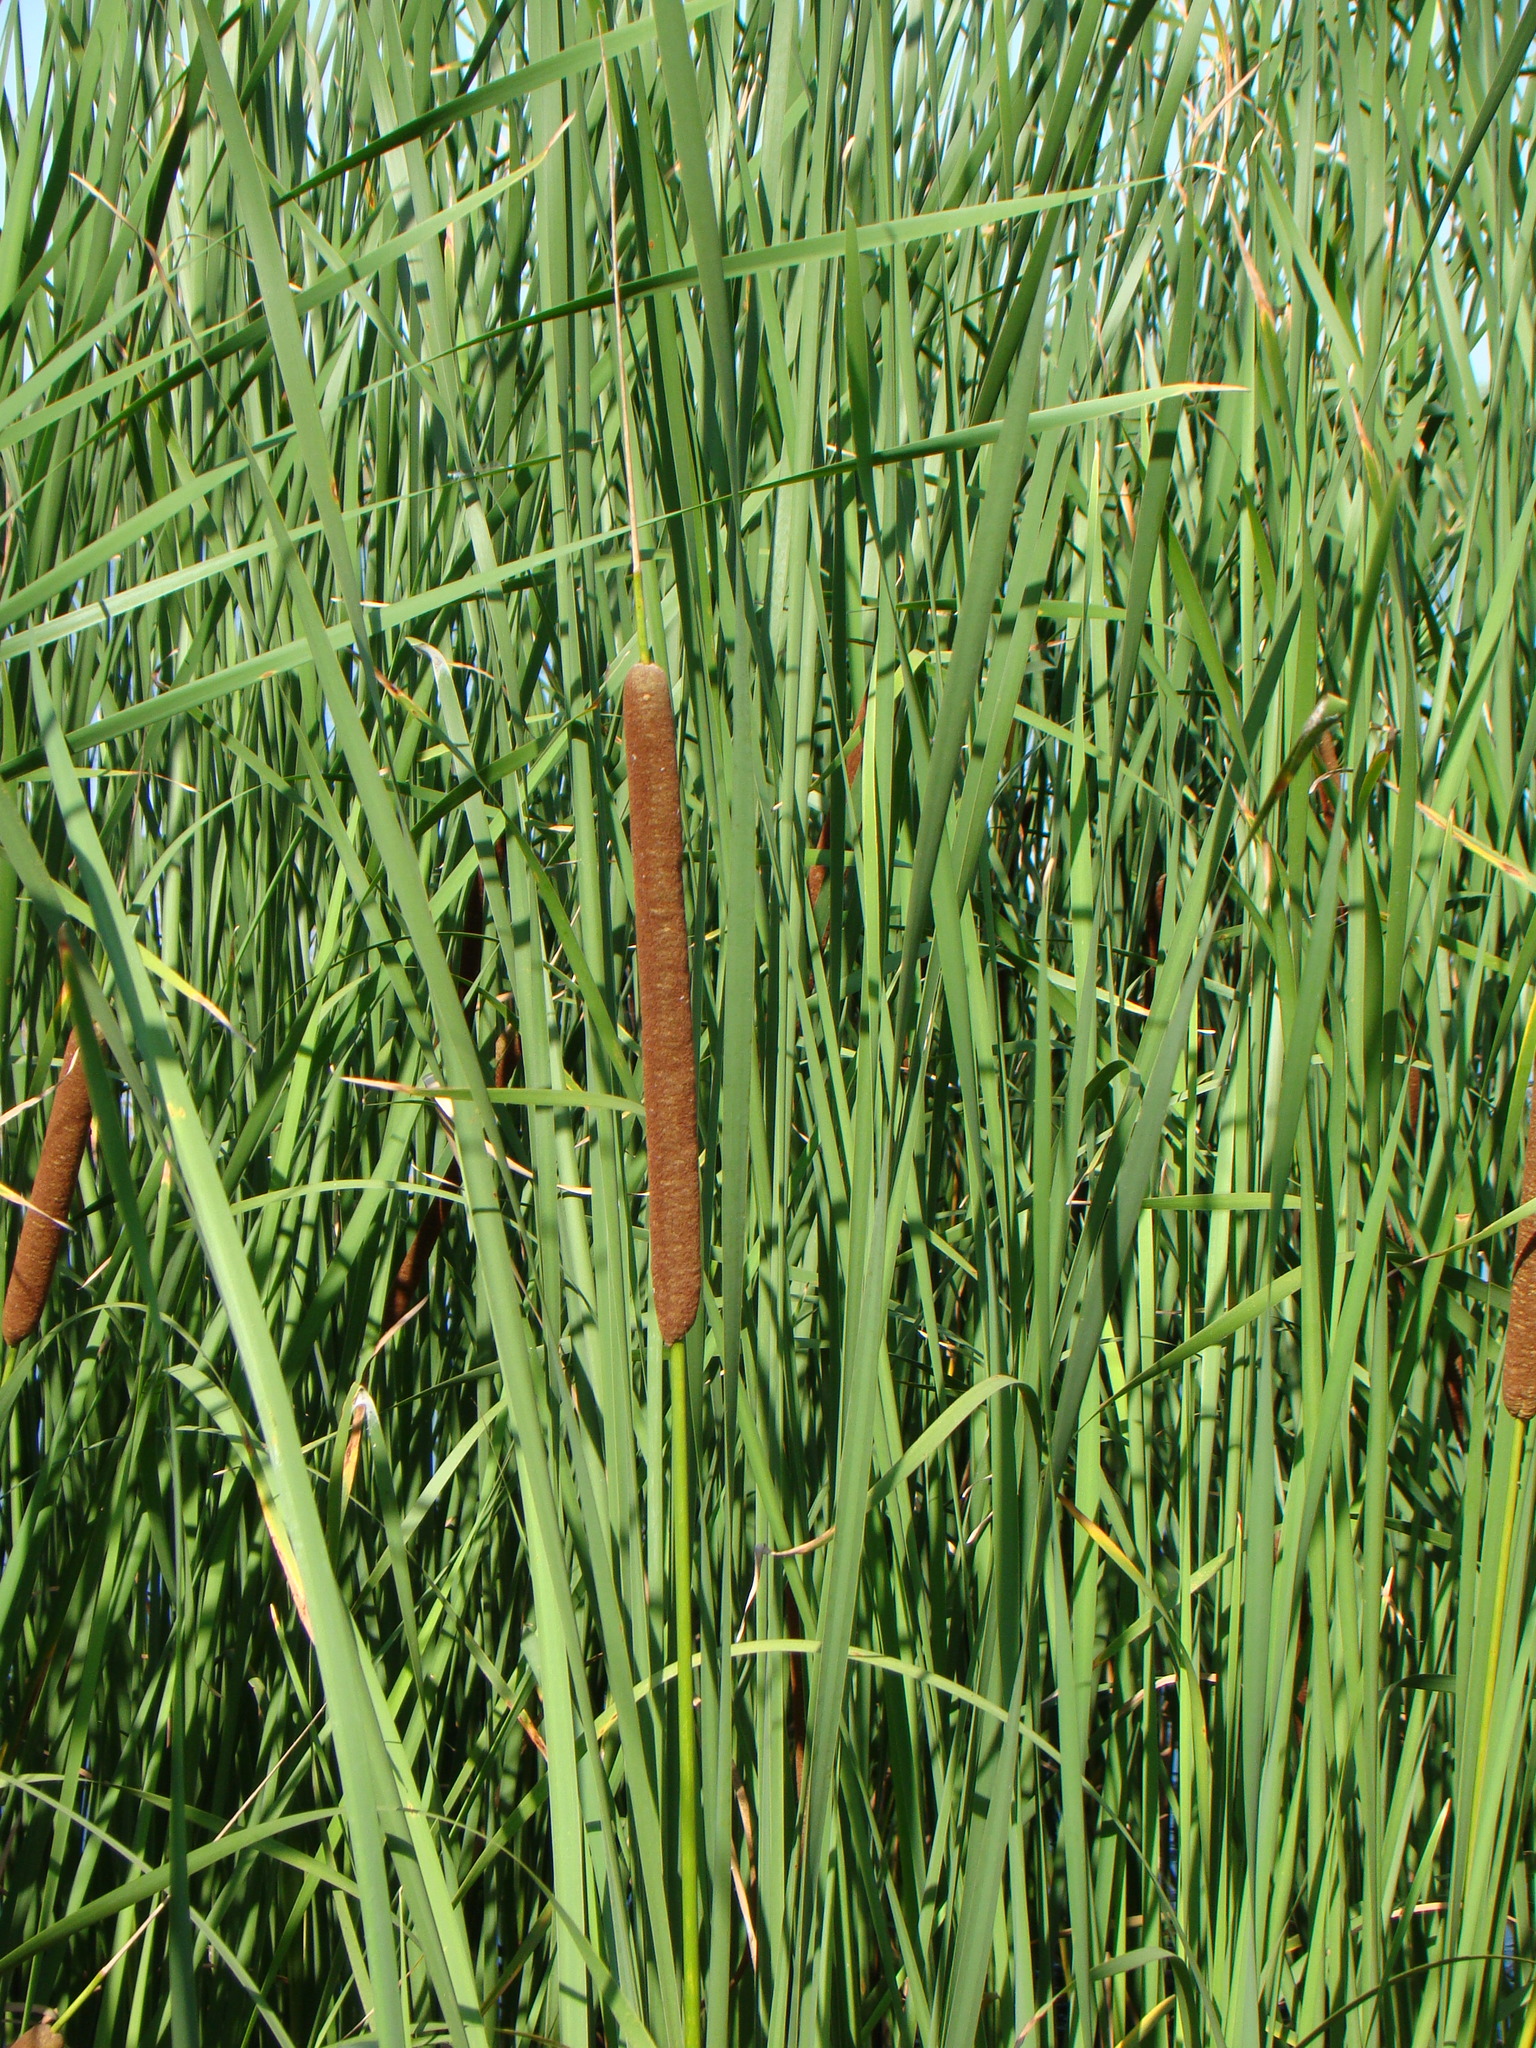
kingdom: Plantae
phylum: Tracheophyta
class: Liliopsida
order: Poales
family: Typhaceae
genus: Typha
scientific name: Typha angustifolia
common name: Lesser bulrush
